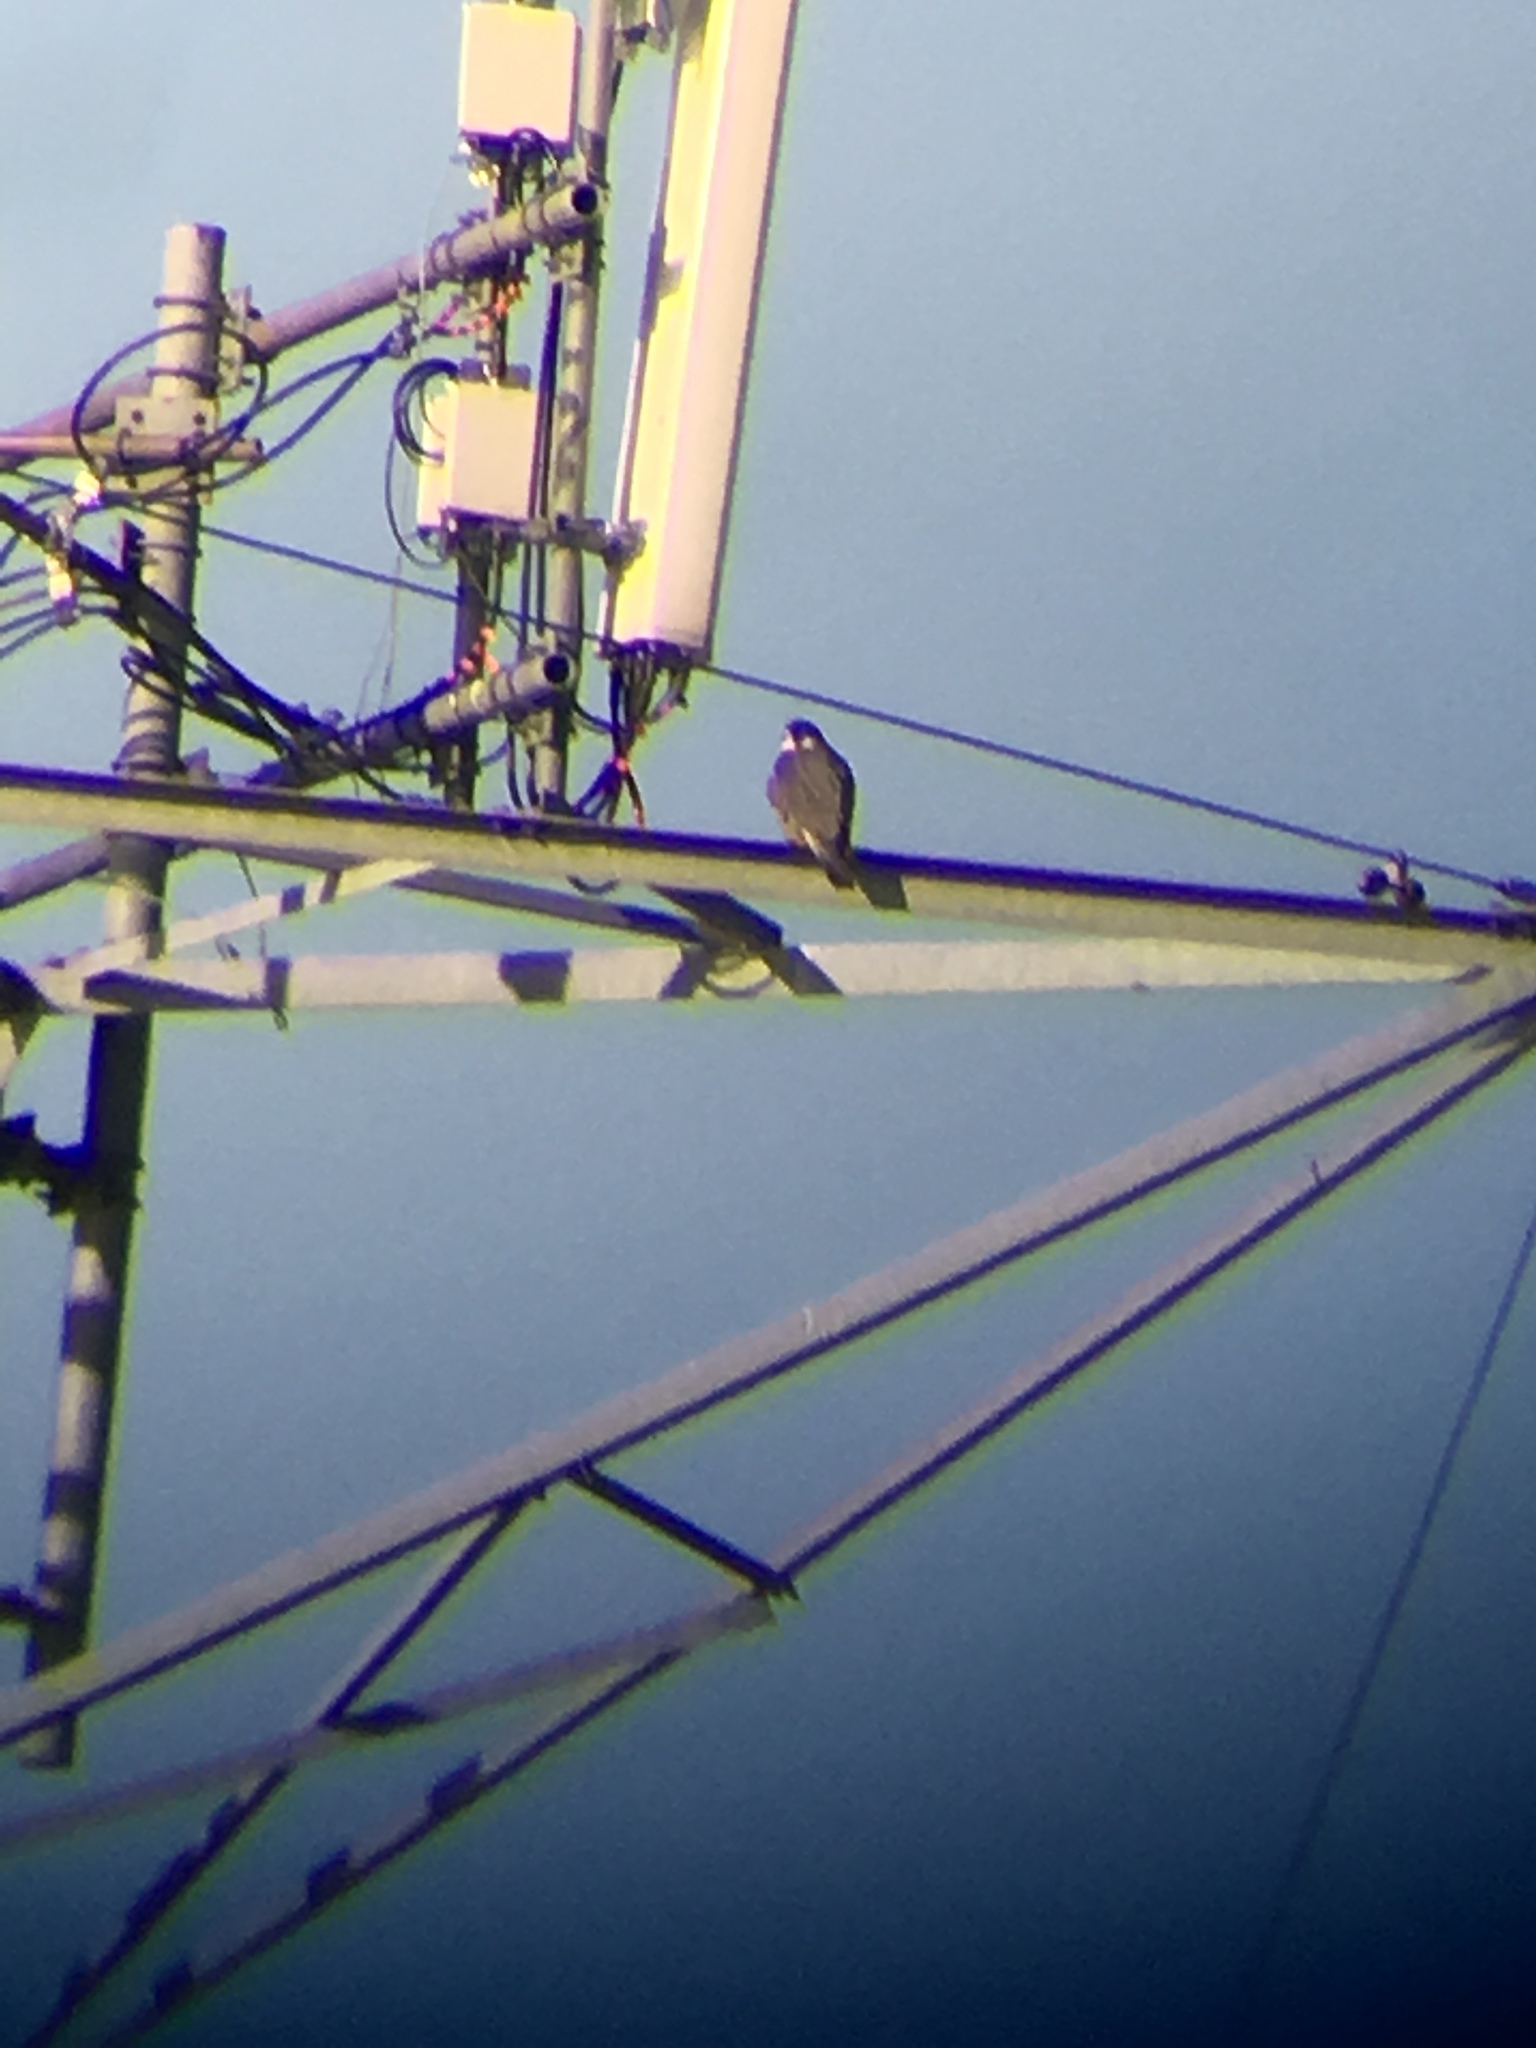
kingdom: Animalia
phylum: Chordata
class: Aves
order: Falconiformes
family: Falconidae
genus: Falco
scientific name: Falco peregrinus
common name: Peregrine falcon
